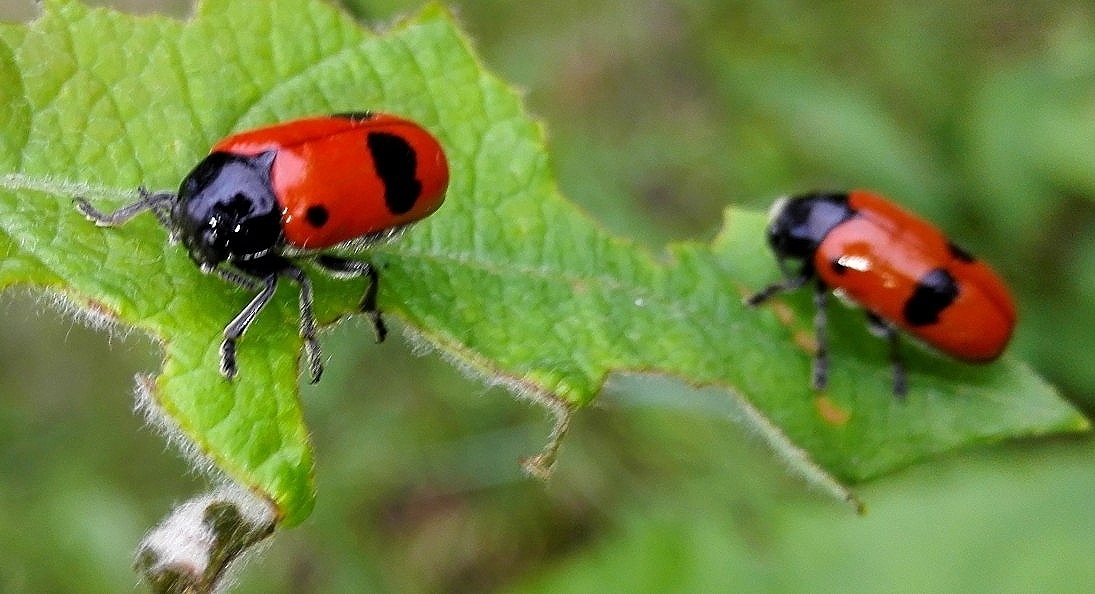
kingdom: Animalia
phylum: Arthropoda
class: Insecta
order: Coleoptera
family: Chrysomelidae
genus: Clytra
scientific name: Clytra laeviuscula
